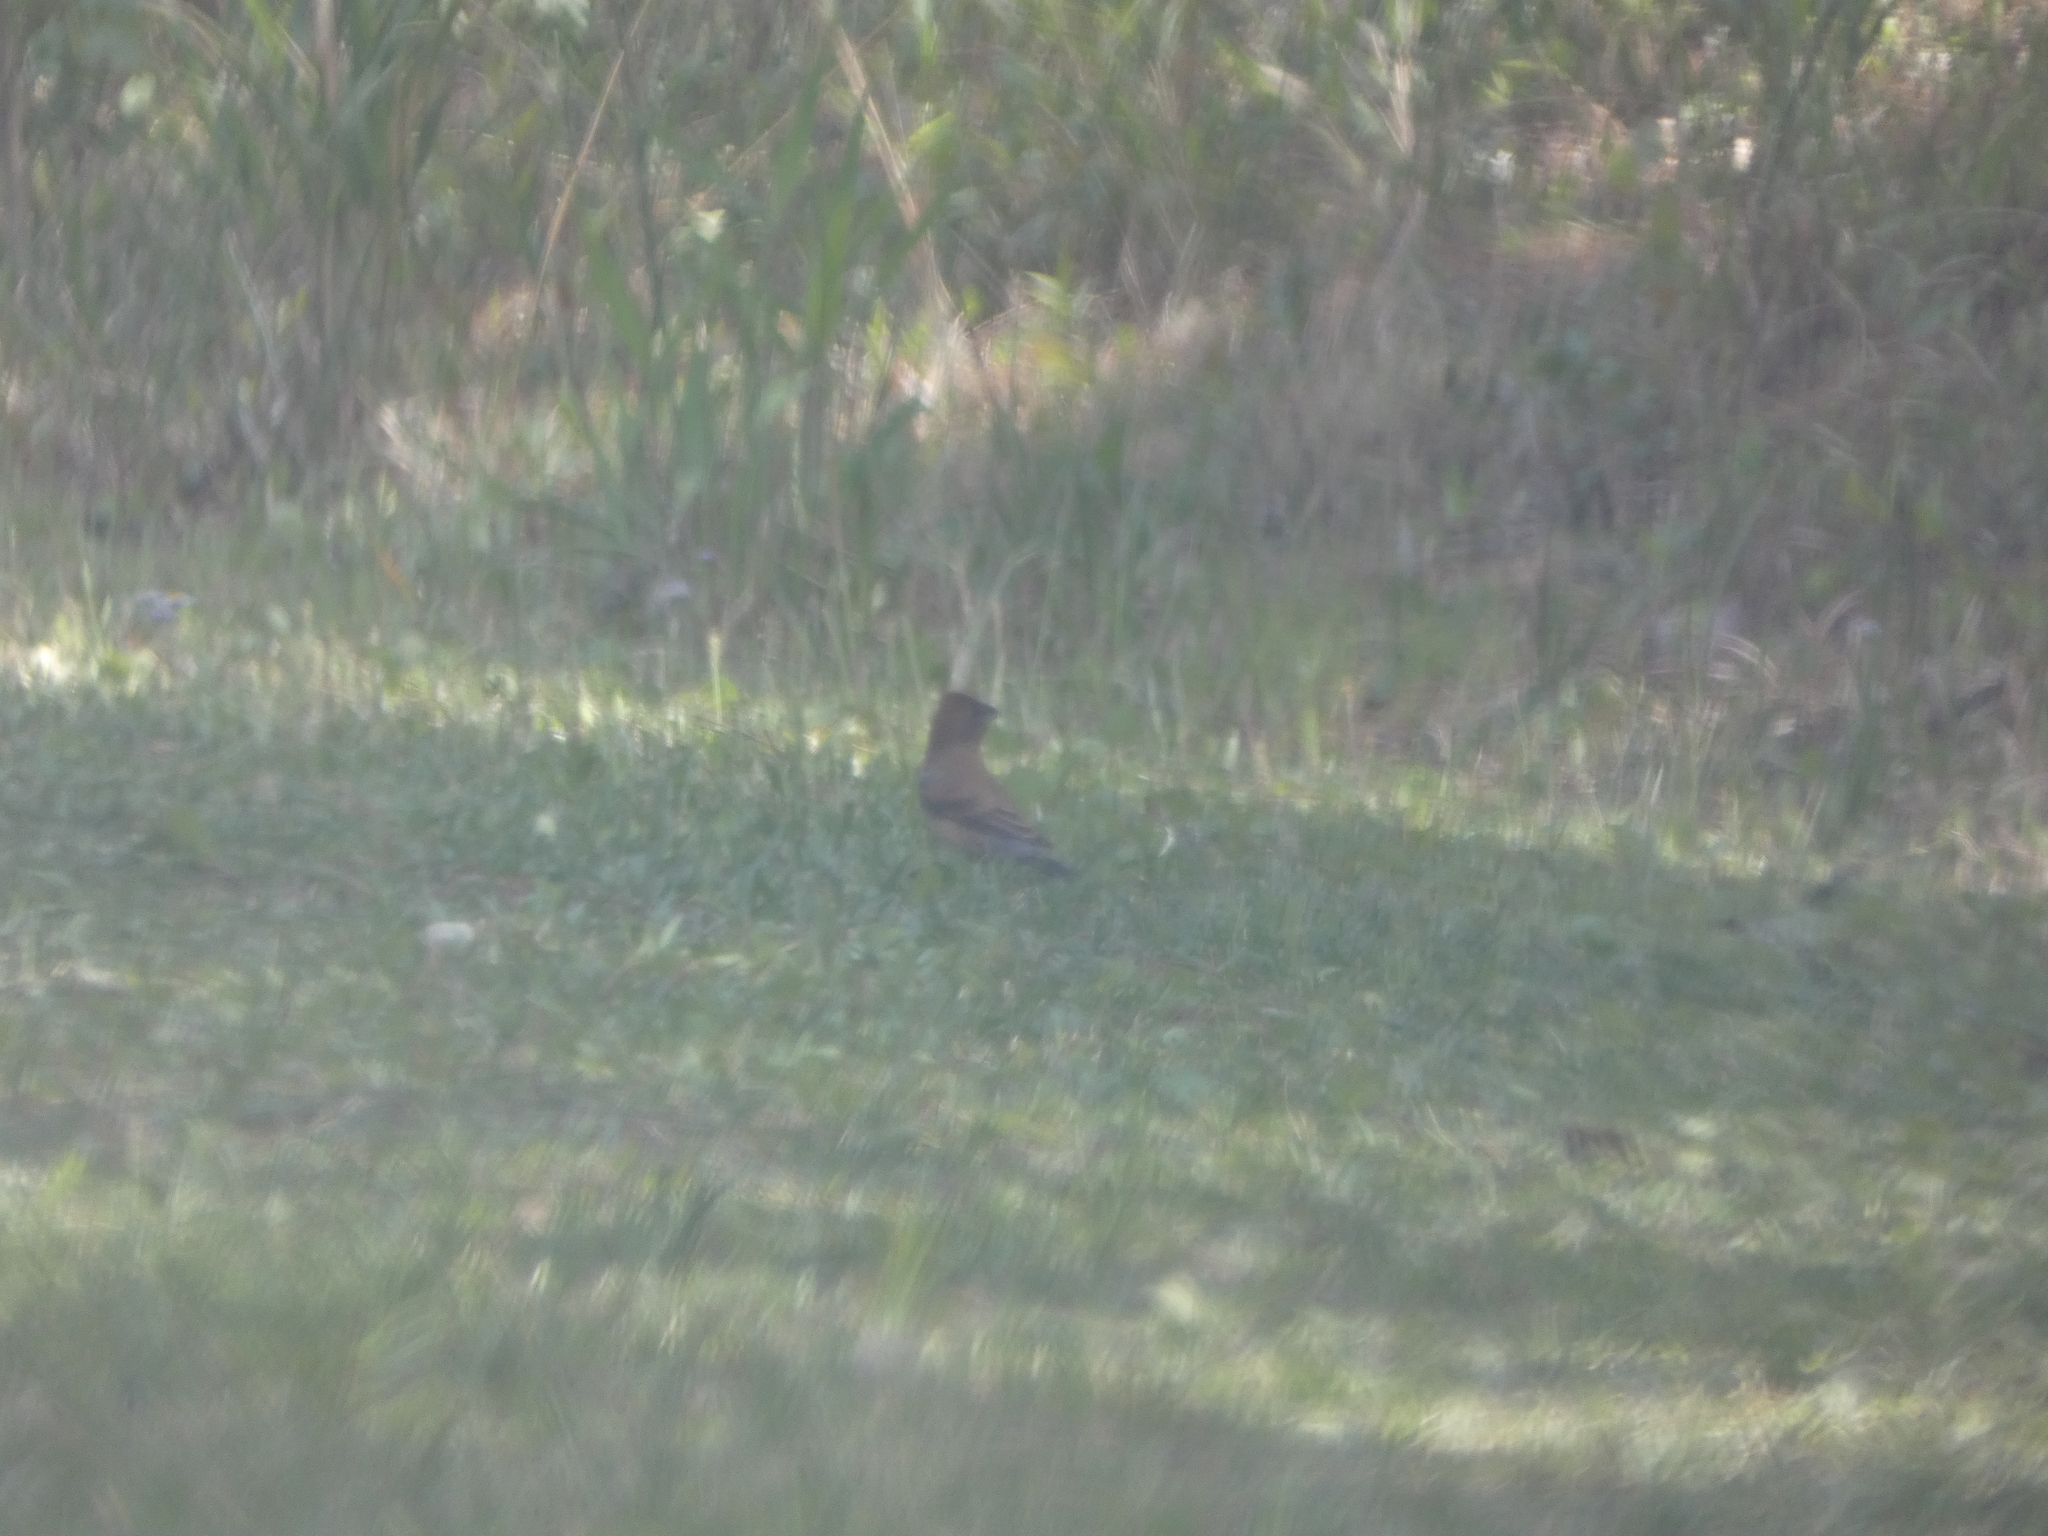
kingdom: Animalia
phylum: Chordata
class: Aves
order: Passeriformes
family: Cardinalidae
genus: Passerina
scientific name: Passerina caerulea
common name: Blue grosbeak
